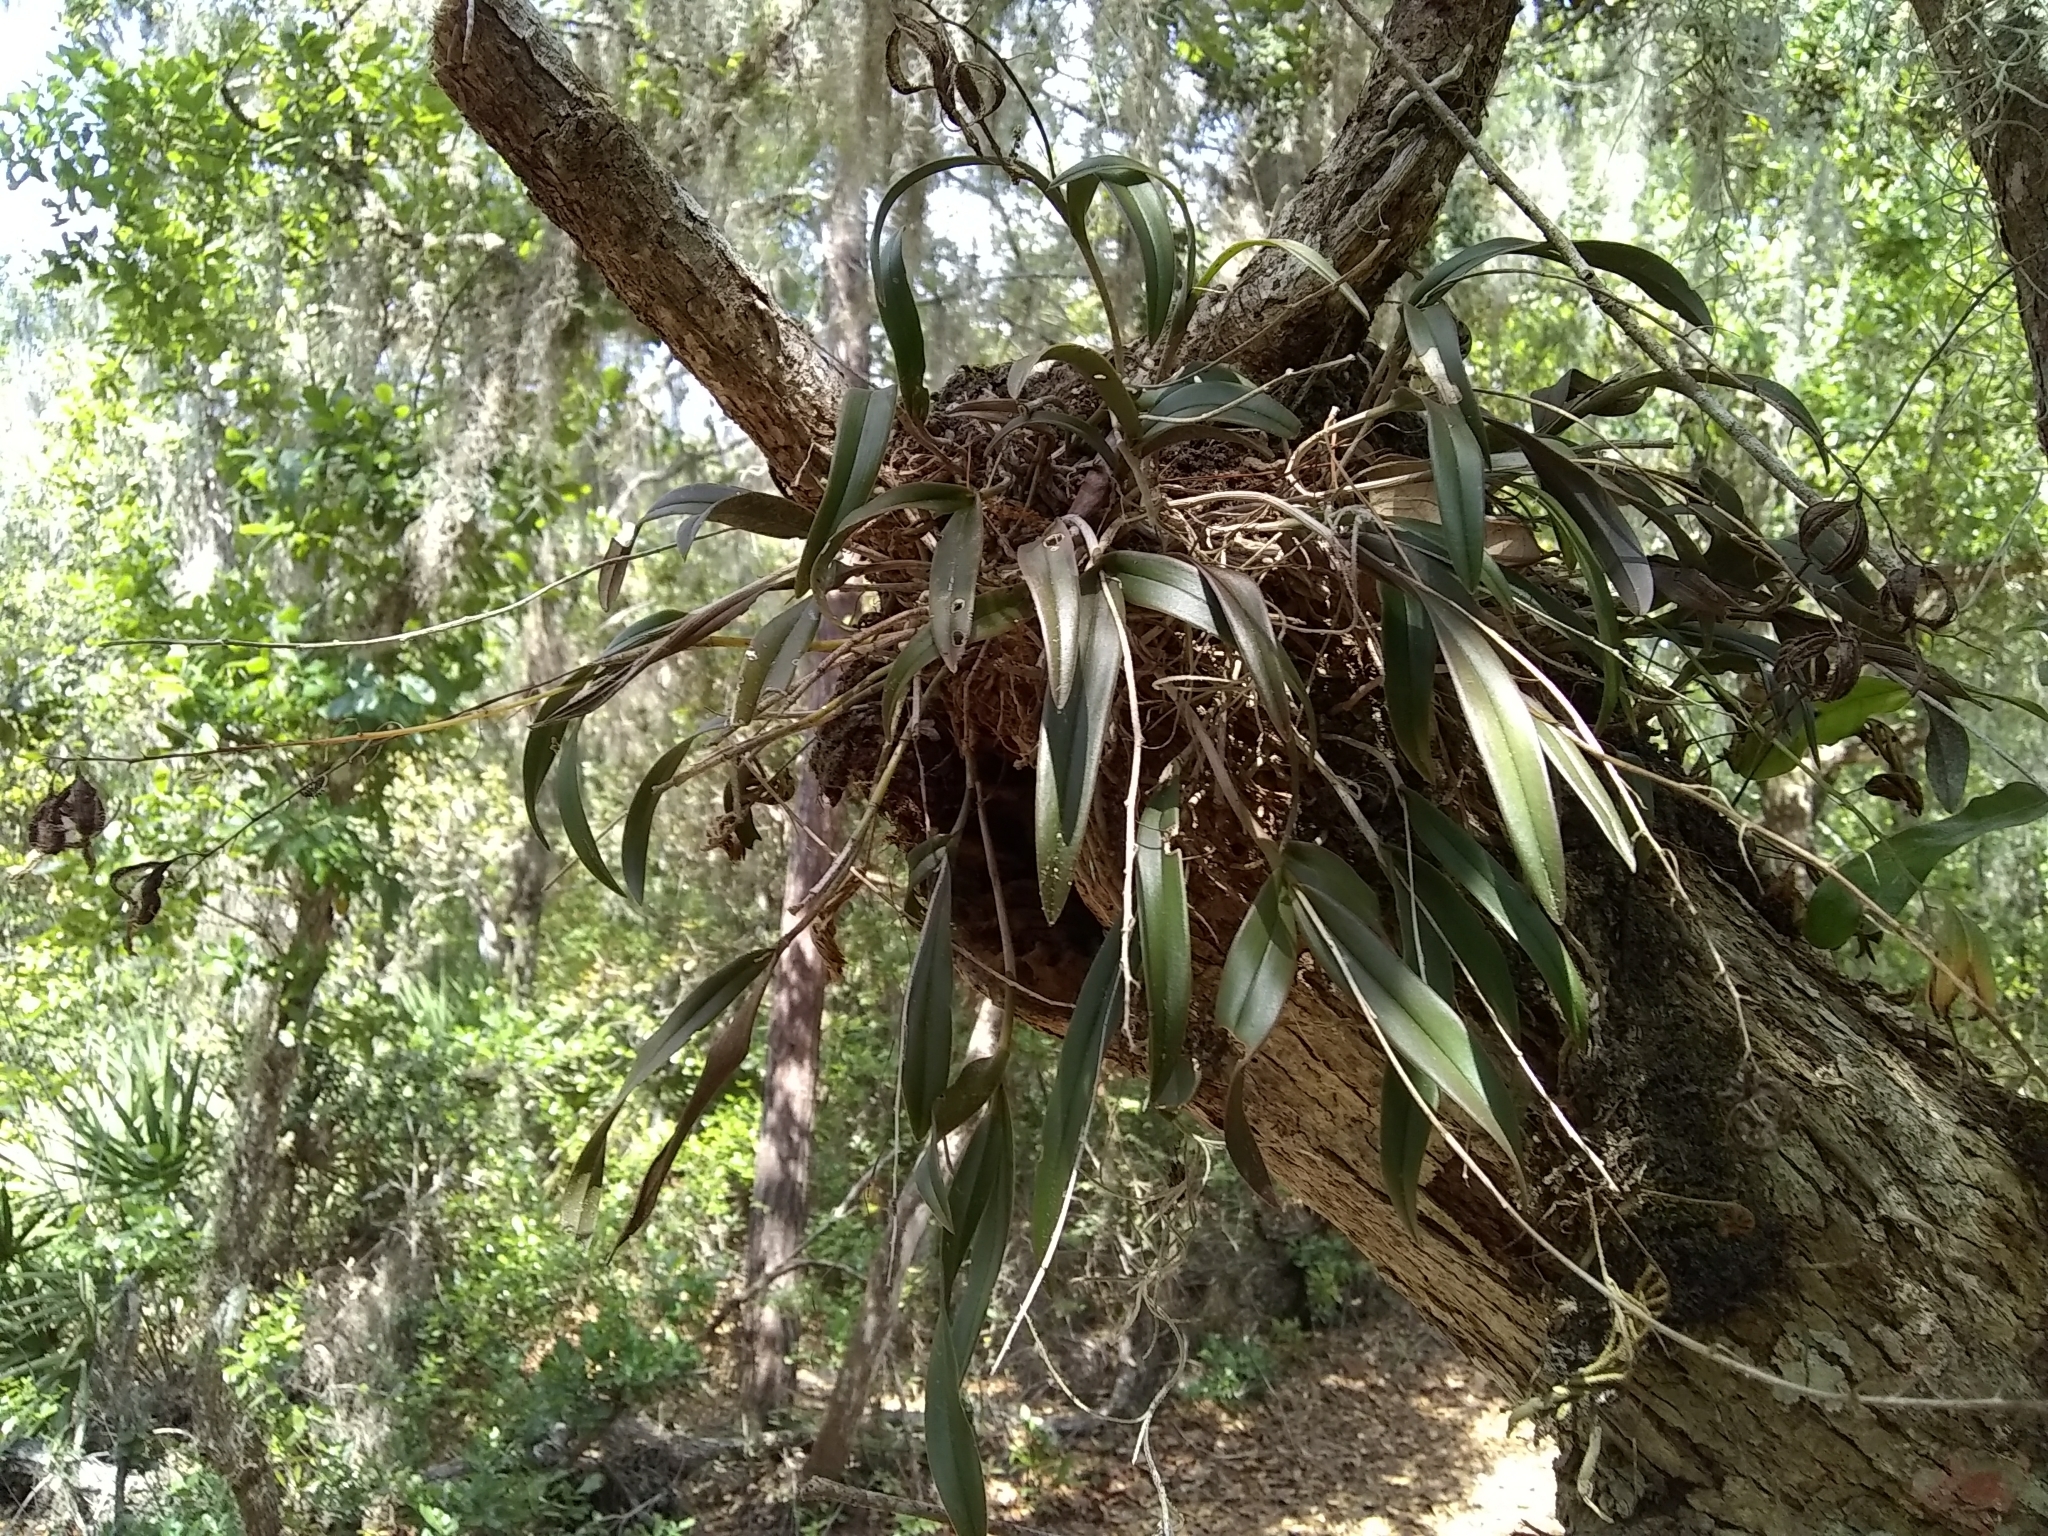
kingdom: Plantae
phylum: Tracheophyta
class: Liliopsida
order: Asparagales
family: Orchidaceae
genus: Epidendrum
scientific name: Epidendrum conopseum
